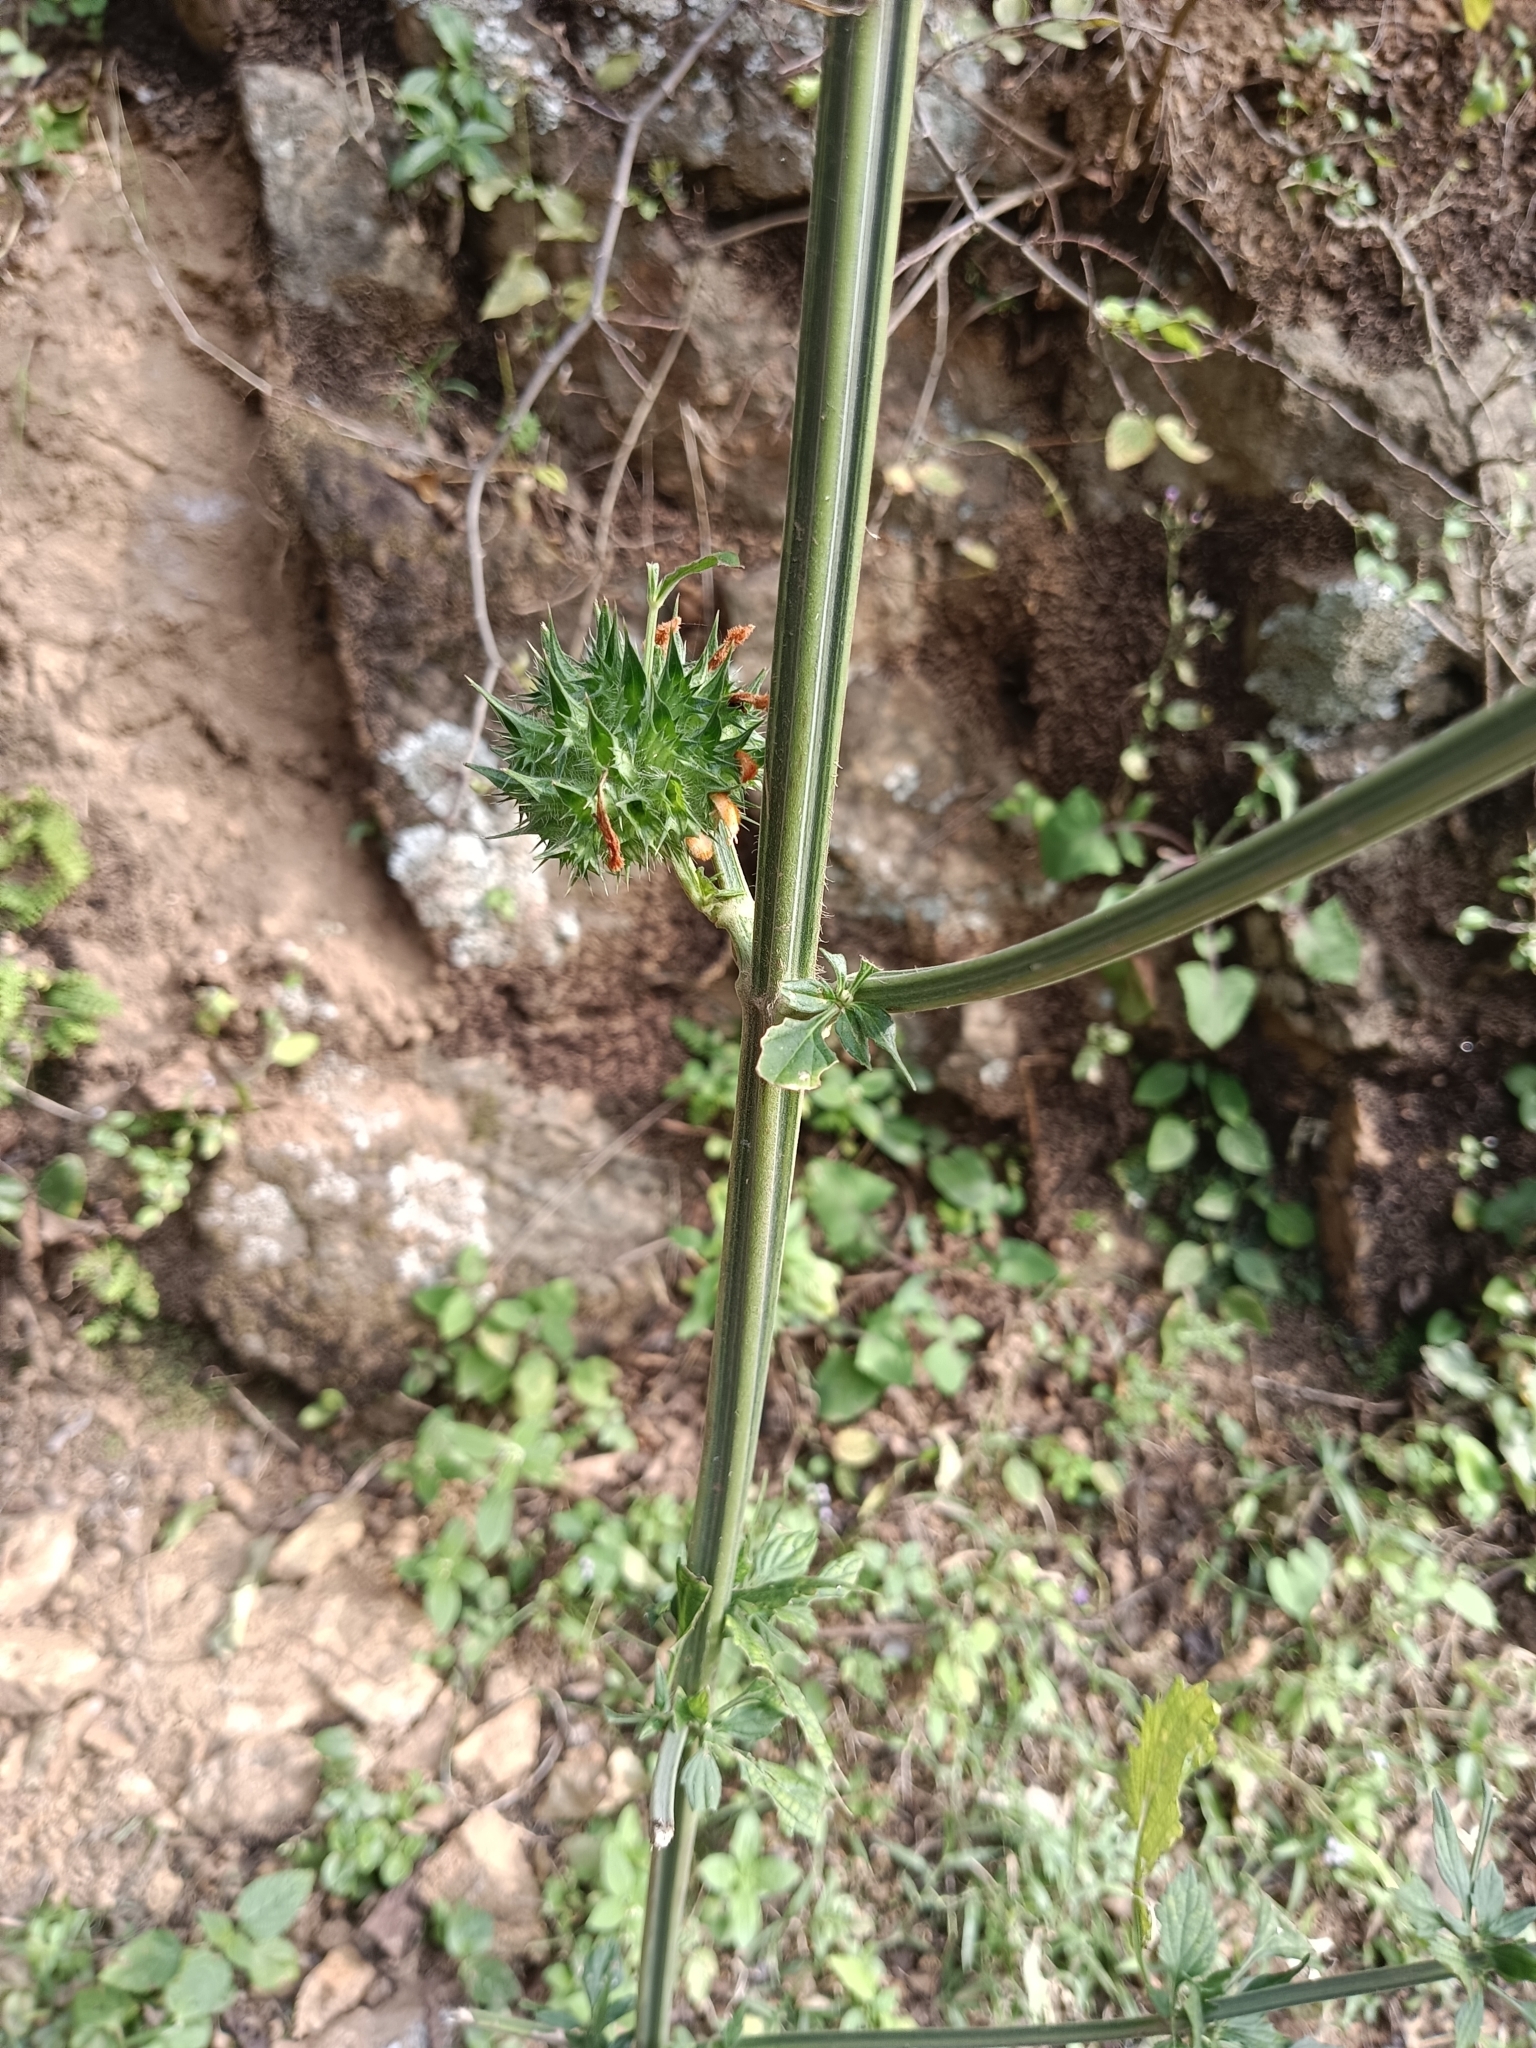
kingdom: Plantae
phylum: Tracheophyta
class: Magnoliopsida
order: Lamiales
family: Lamiaceae
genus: Leonotis
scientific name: Leonotis nepetifolia
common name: Christmas candlestick
